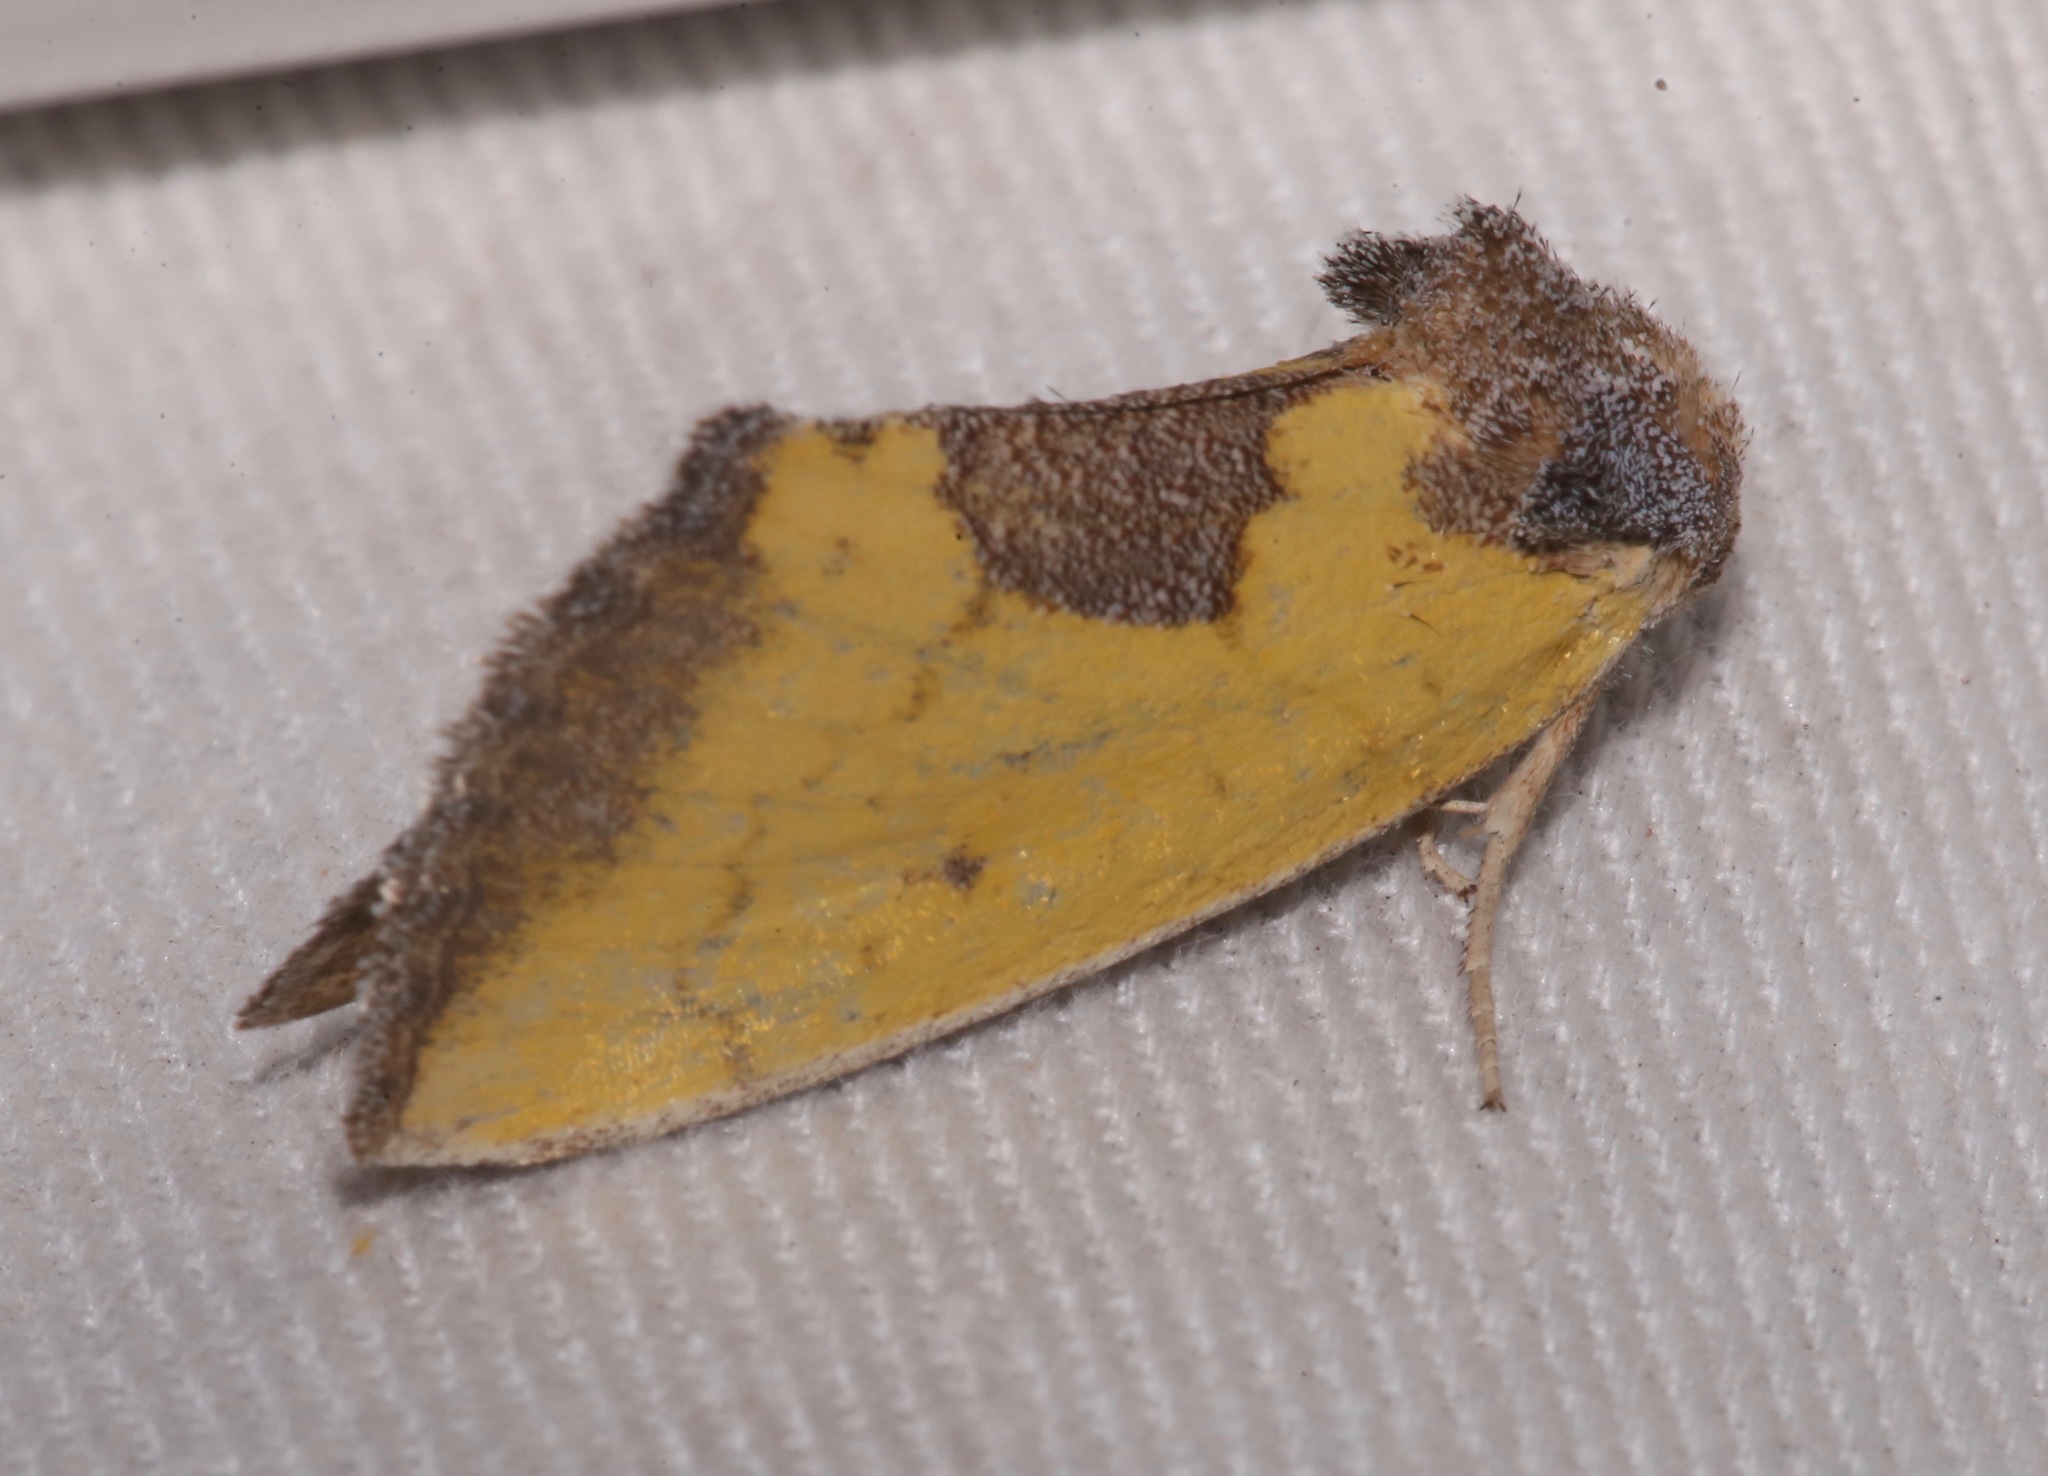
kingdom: Animalia
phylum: Arthropoda
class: Insecta
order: Lepidoptera
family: Noctuidae
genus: Stiria
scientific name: Stiria rugifrons
